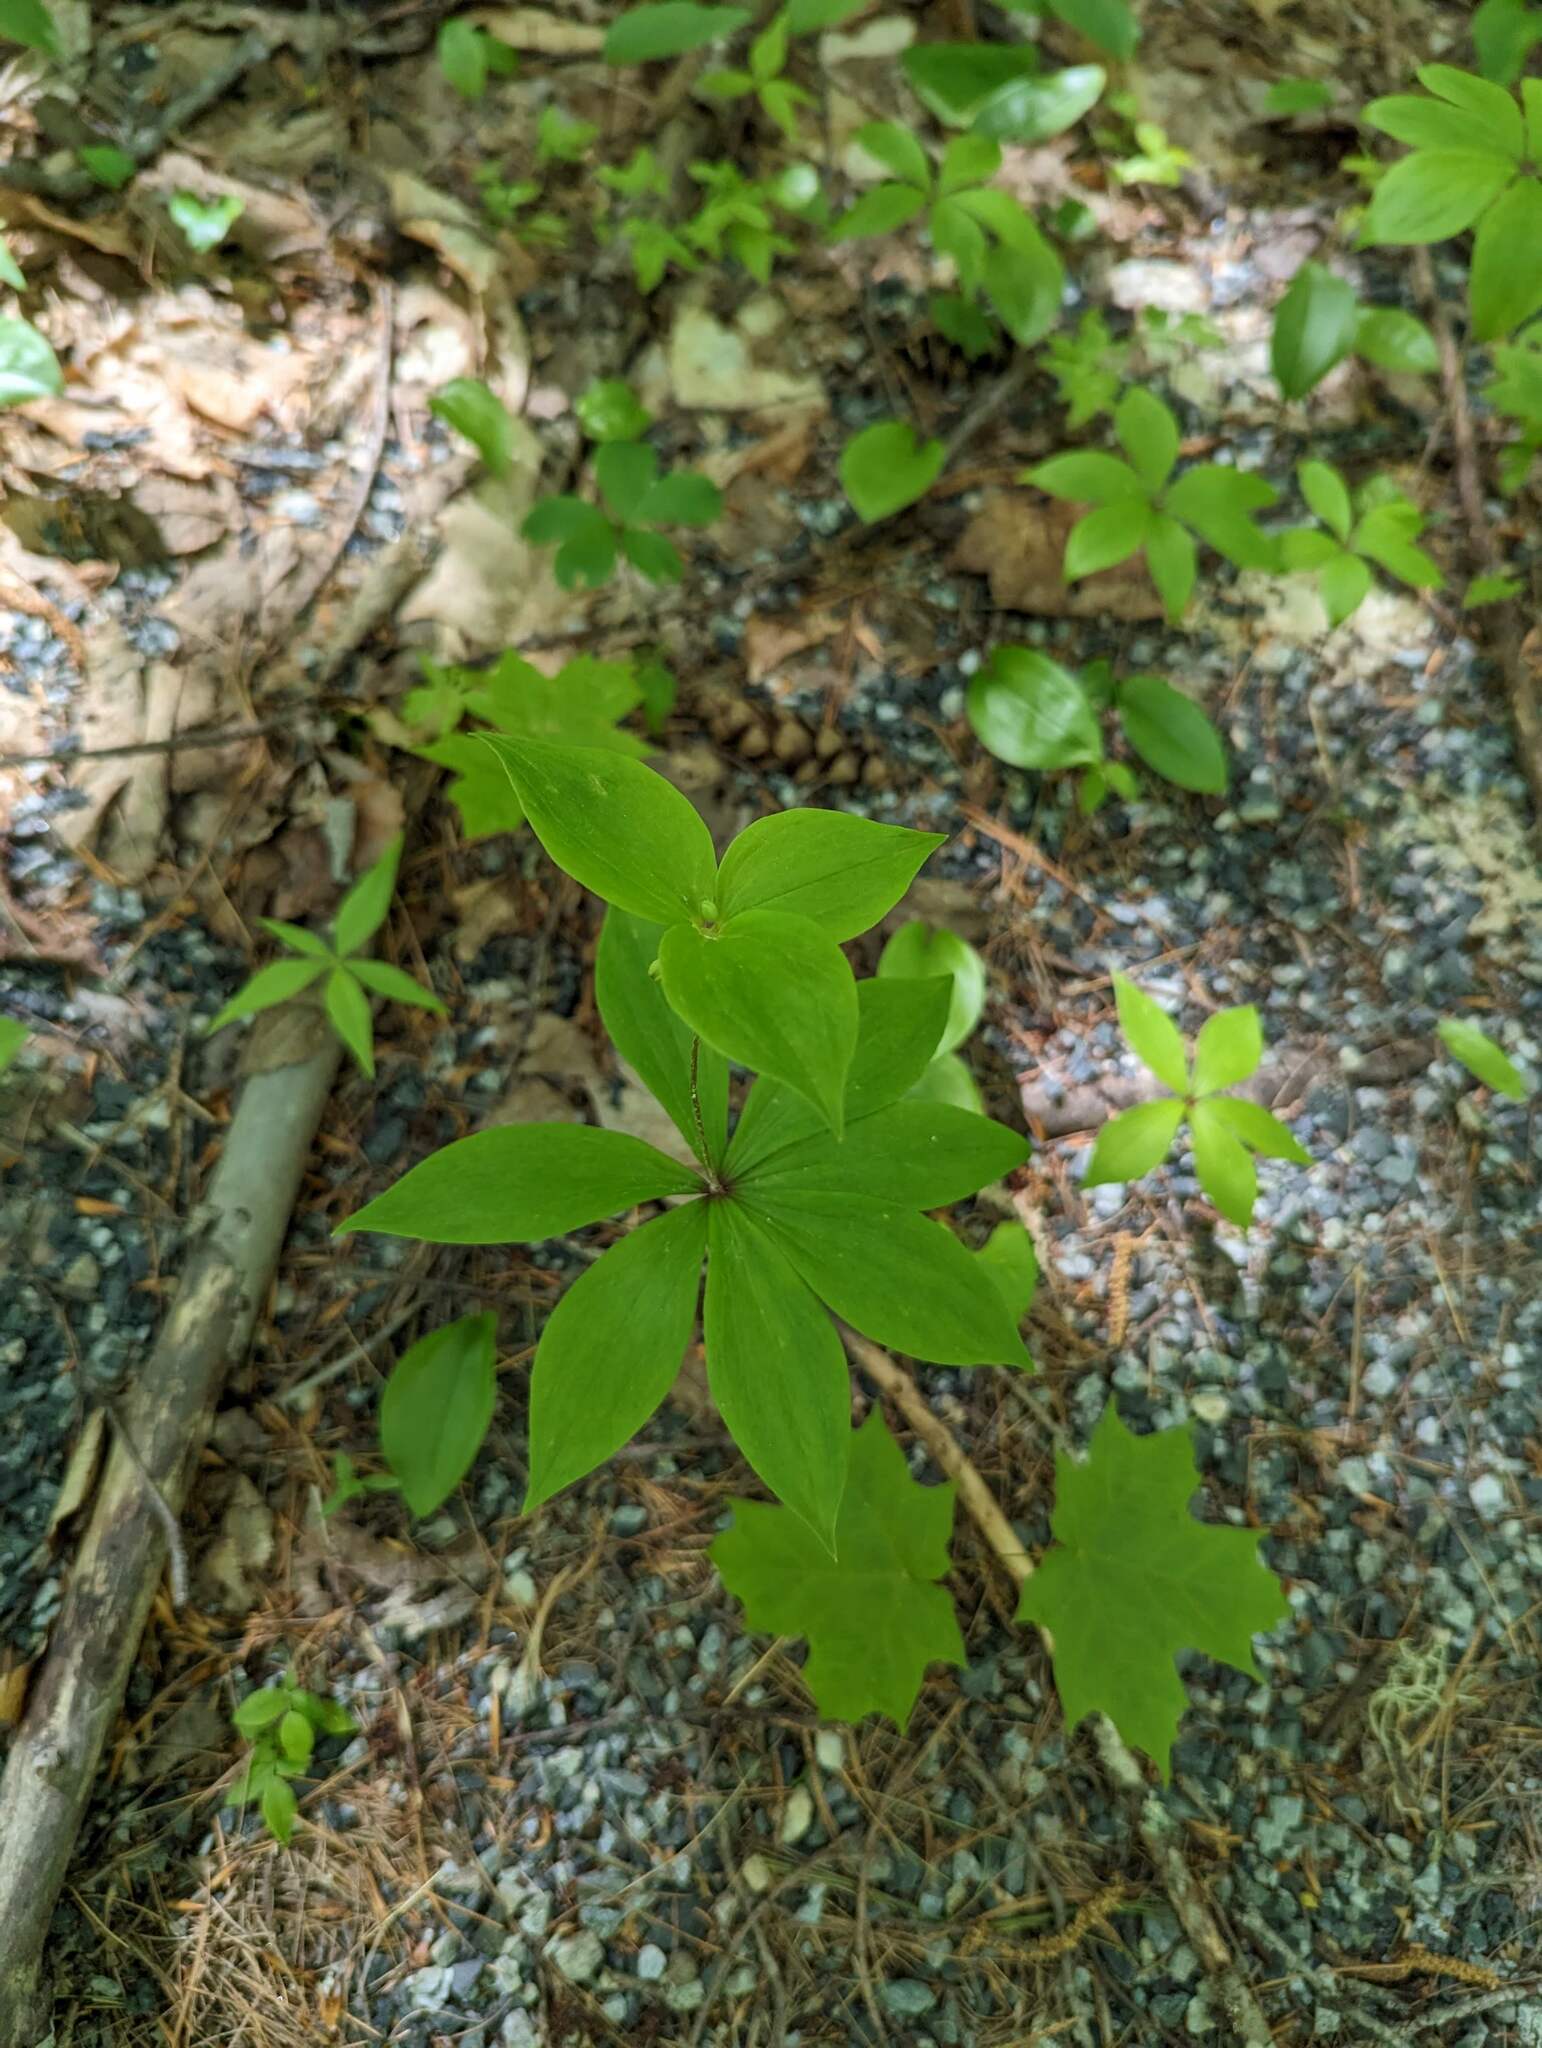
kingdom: Plantae
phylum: Tracheophyta
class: Liliopsida
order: Liliales
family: Liliaceae
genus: Medeola
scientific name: Medeola virginiana
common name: Indian cucumber-root
